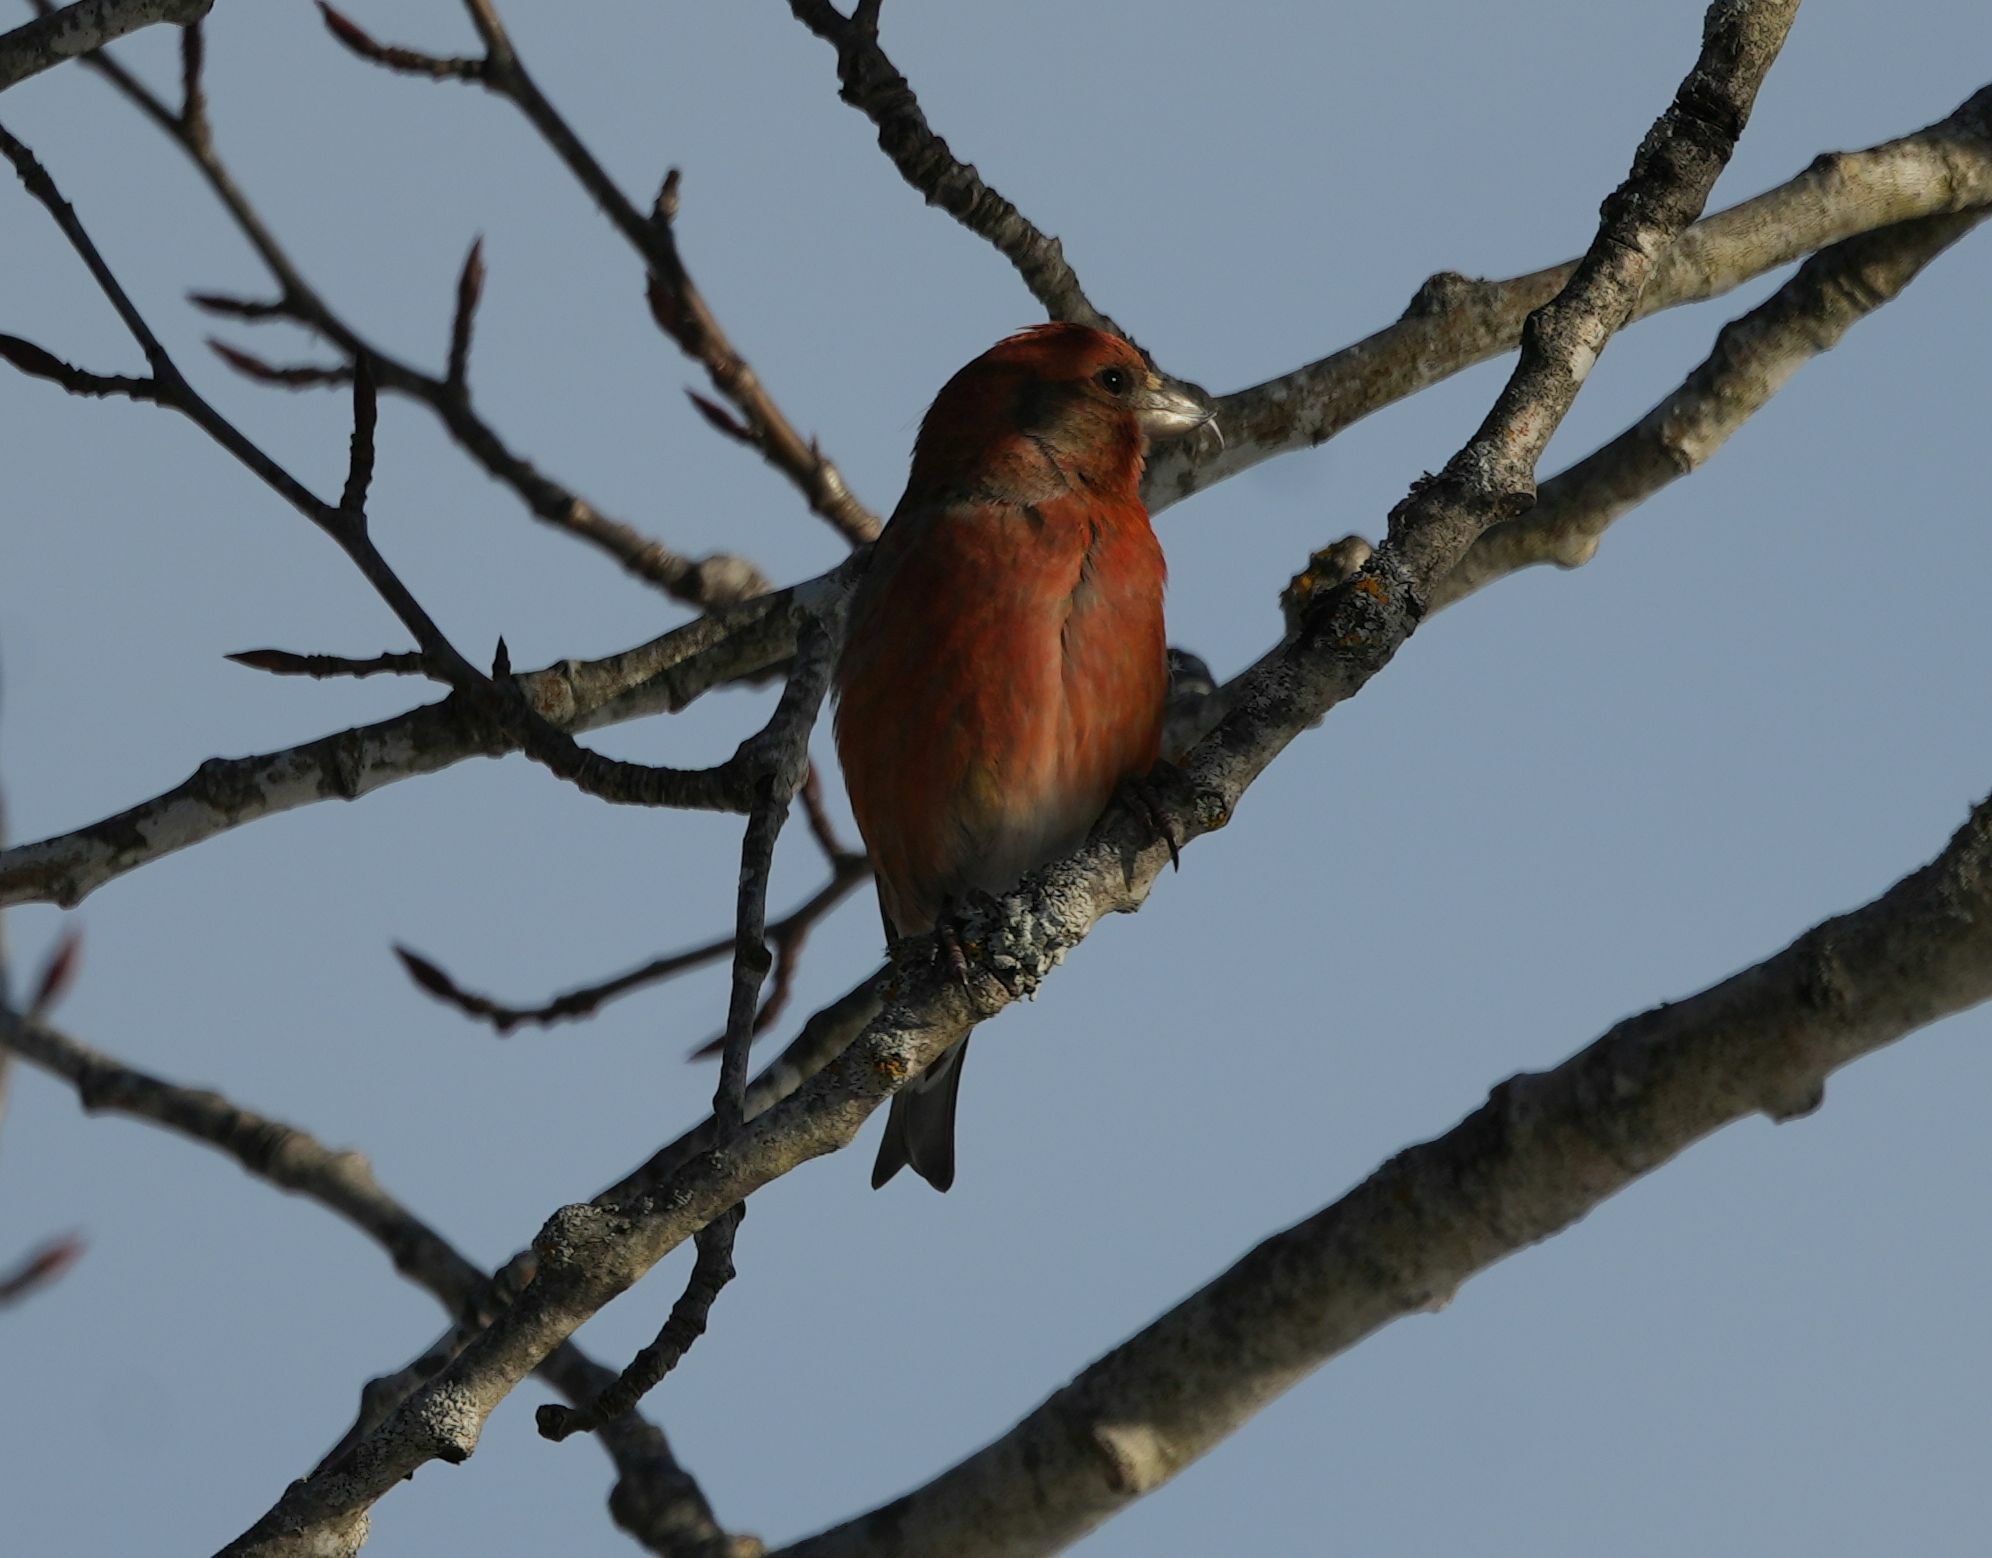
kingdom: Animalia
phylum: Chordata
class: Aves
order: Passeriformes
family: Fringillidae
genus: Loxia
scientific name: Loxia curvirostra
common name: Red crossbill
